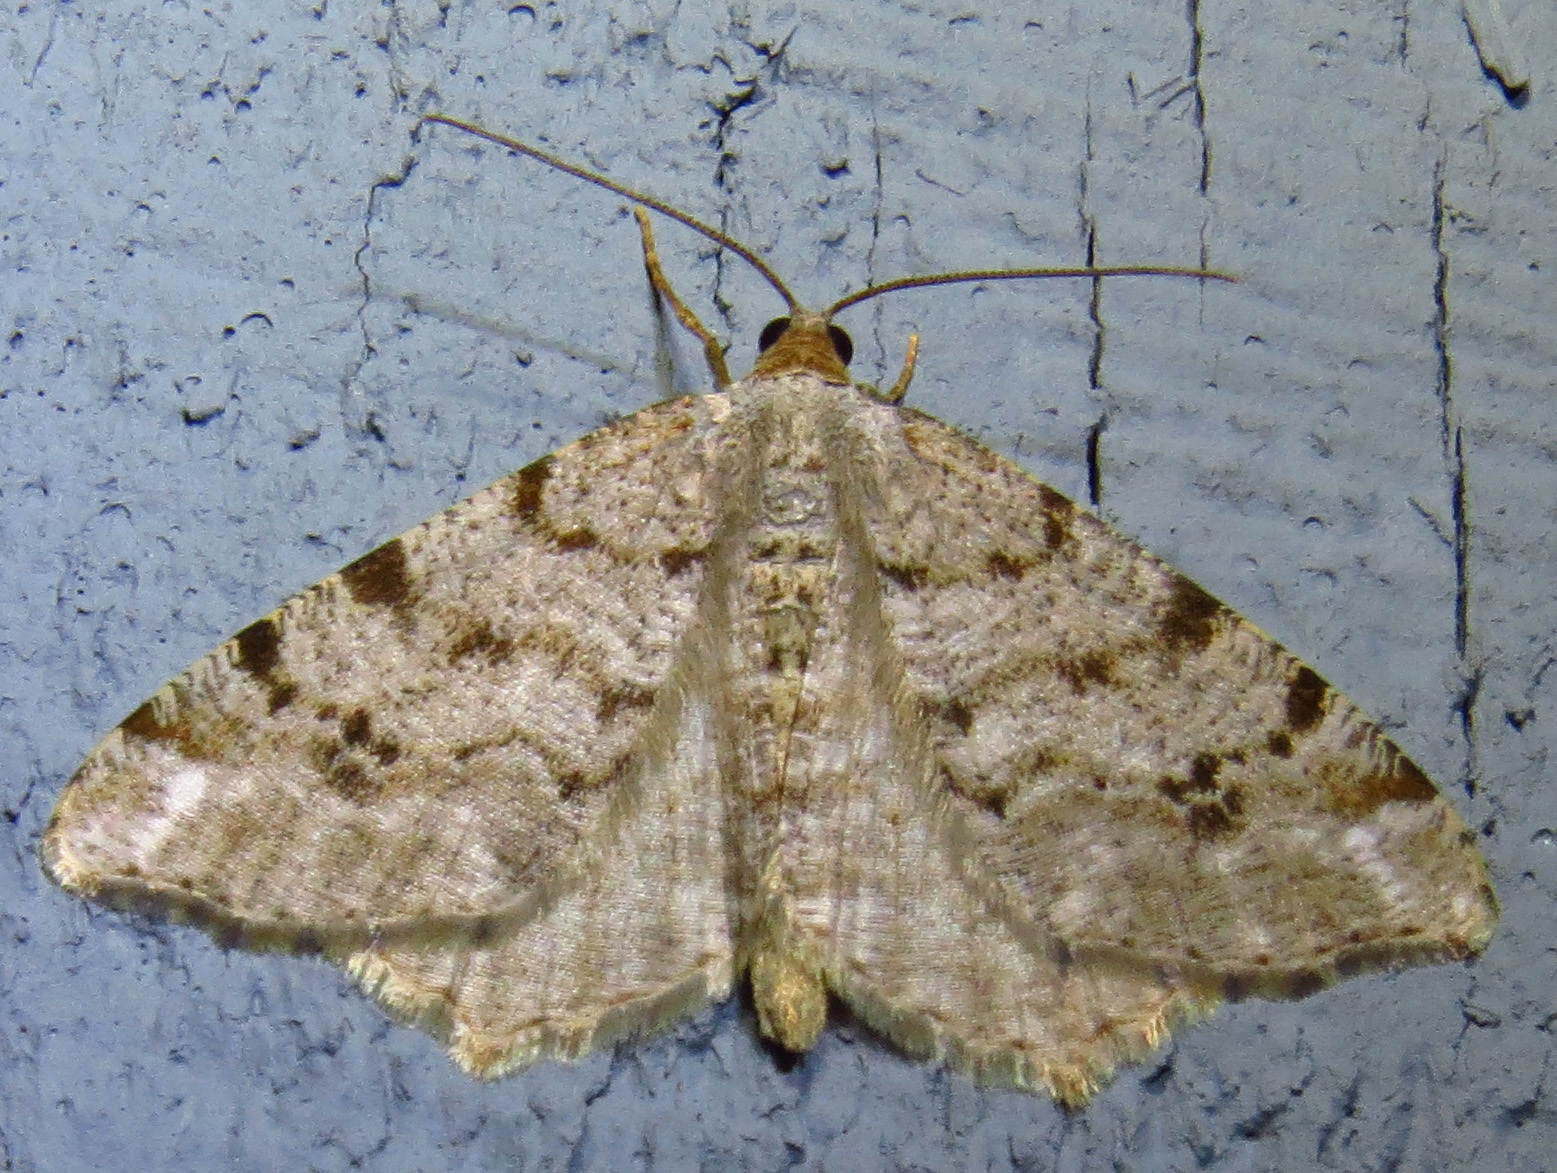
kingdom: Animalia
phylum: Arthropoda
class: Insecta
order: Lepidoptera
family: Geometridae
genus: Macaria
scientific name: Macaria signaria
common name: Dusky peacock
